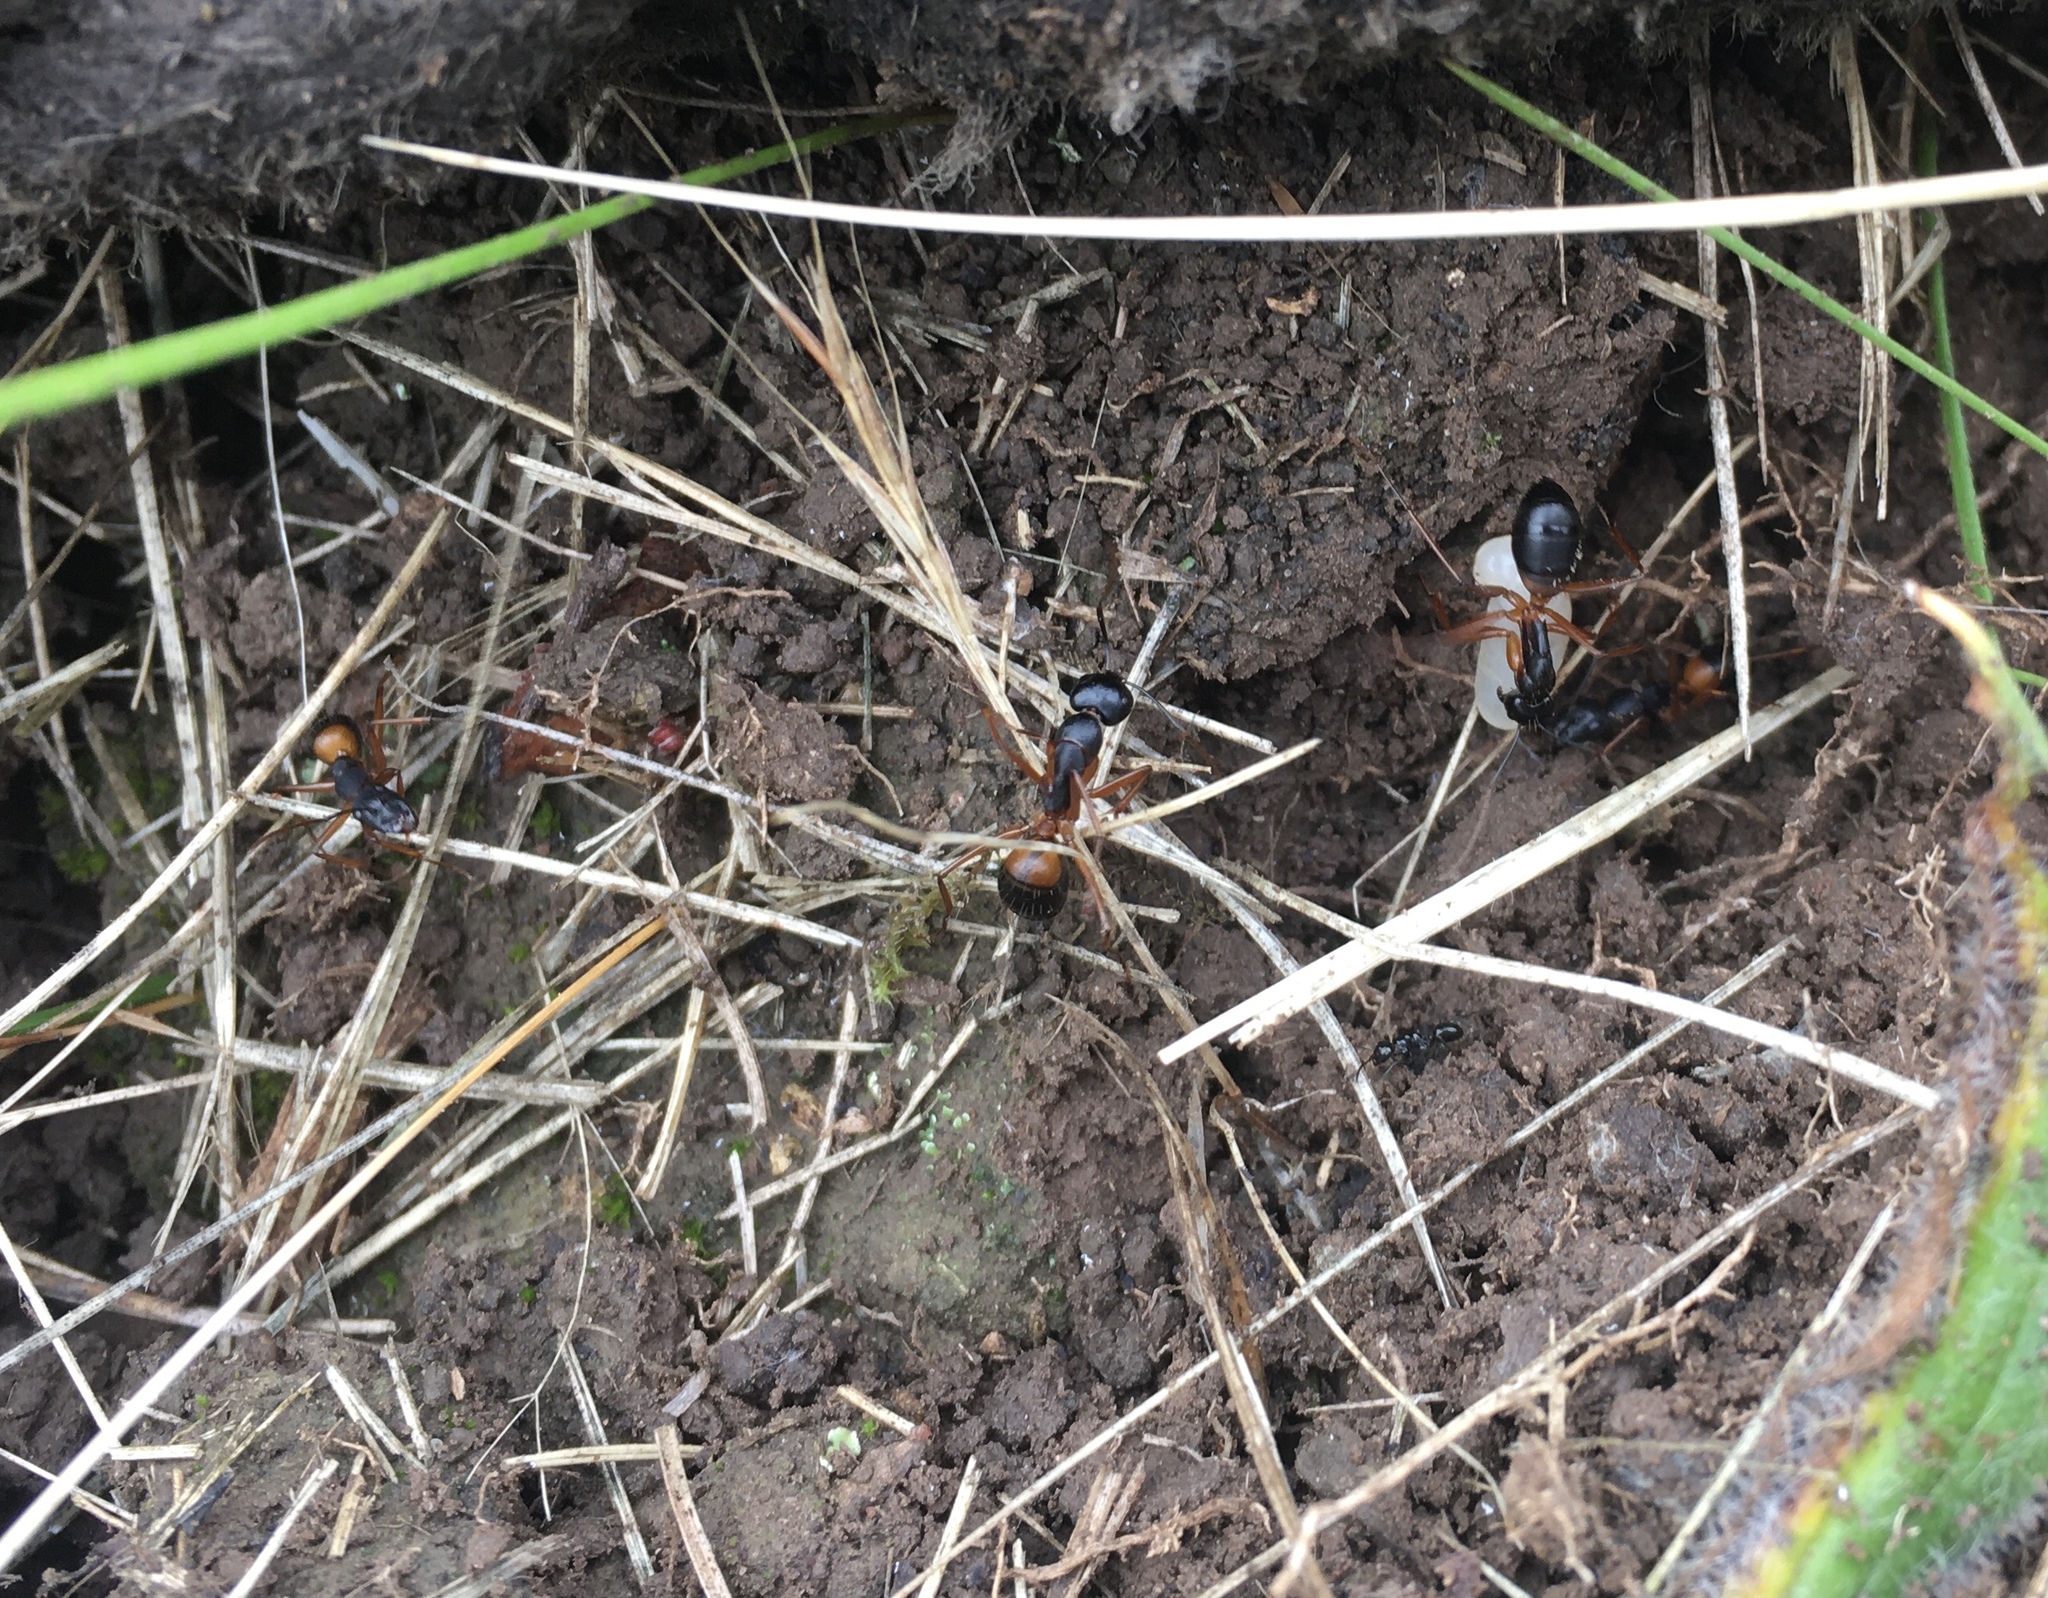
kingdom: Animalia
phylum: Arthropoda
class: Insecta
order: Hymenoptera
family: Formicidae
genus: Camponotus
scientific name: Camponotus consobrinus
